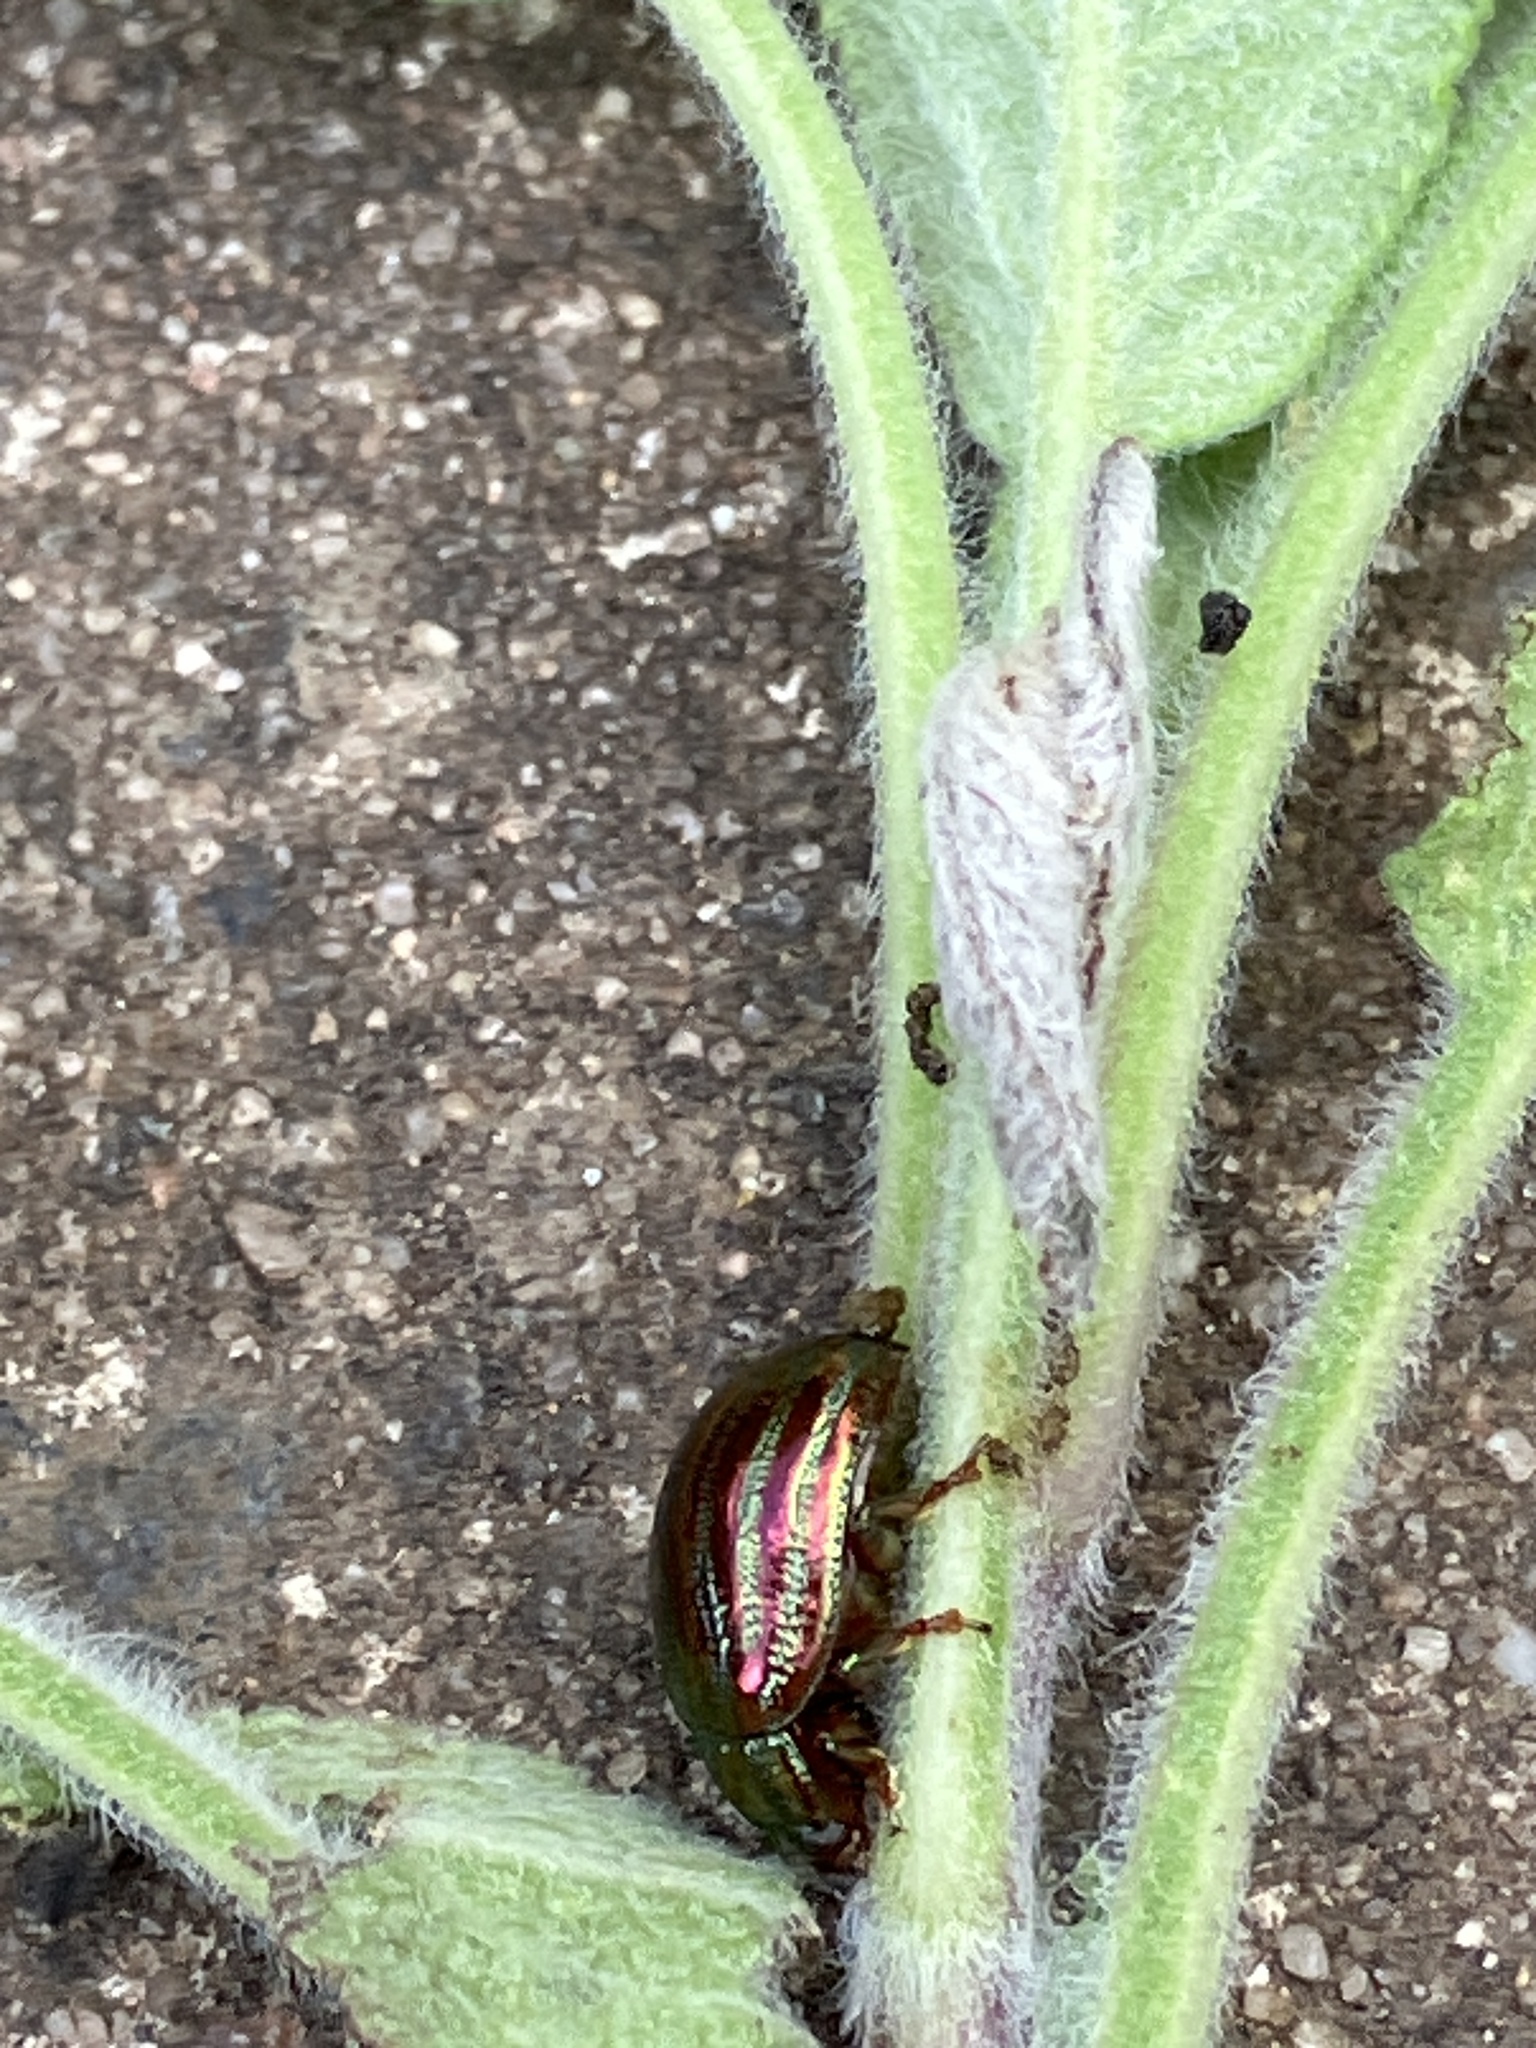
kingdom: Animalia
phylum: Arthropoda
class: Insecta
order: Coleoptera
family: Chrysomelidae
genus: Chrysolina
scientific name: Chrysolina americana
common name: Rosemary beetle
